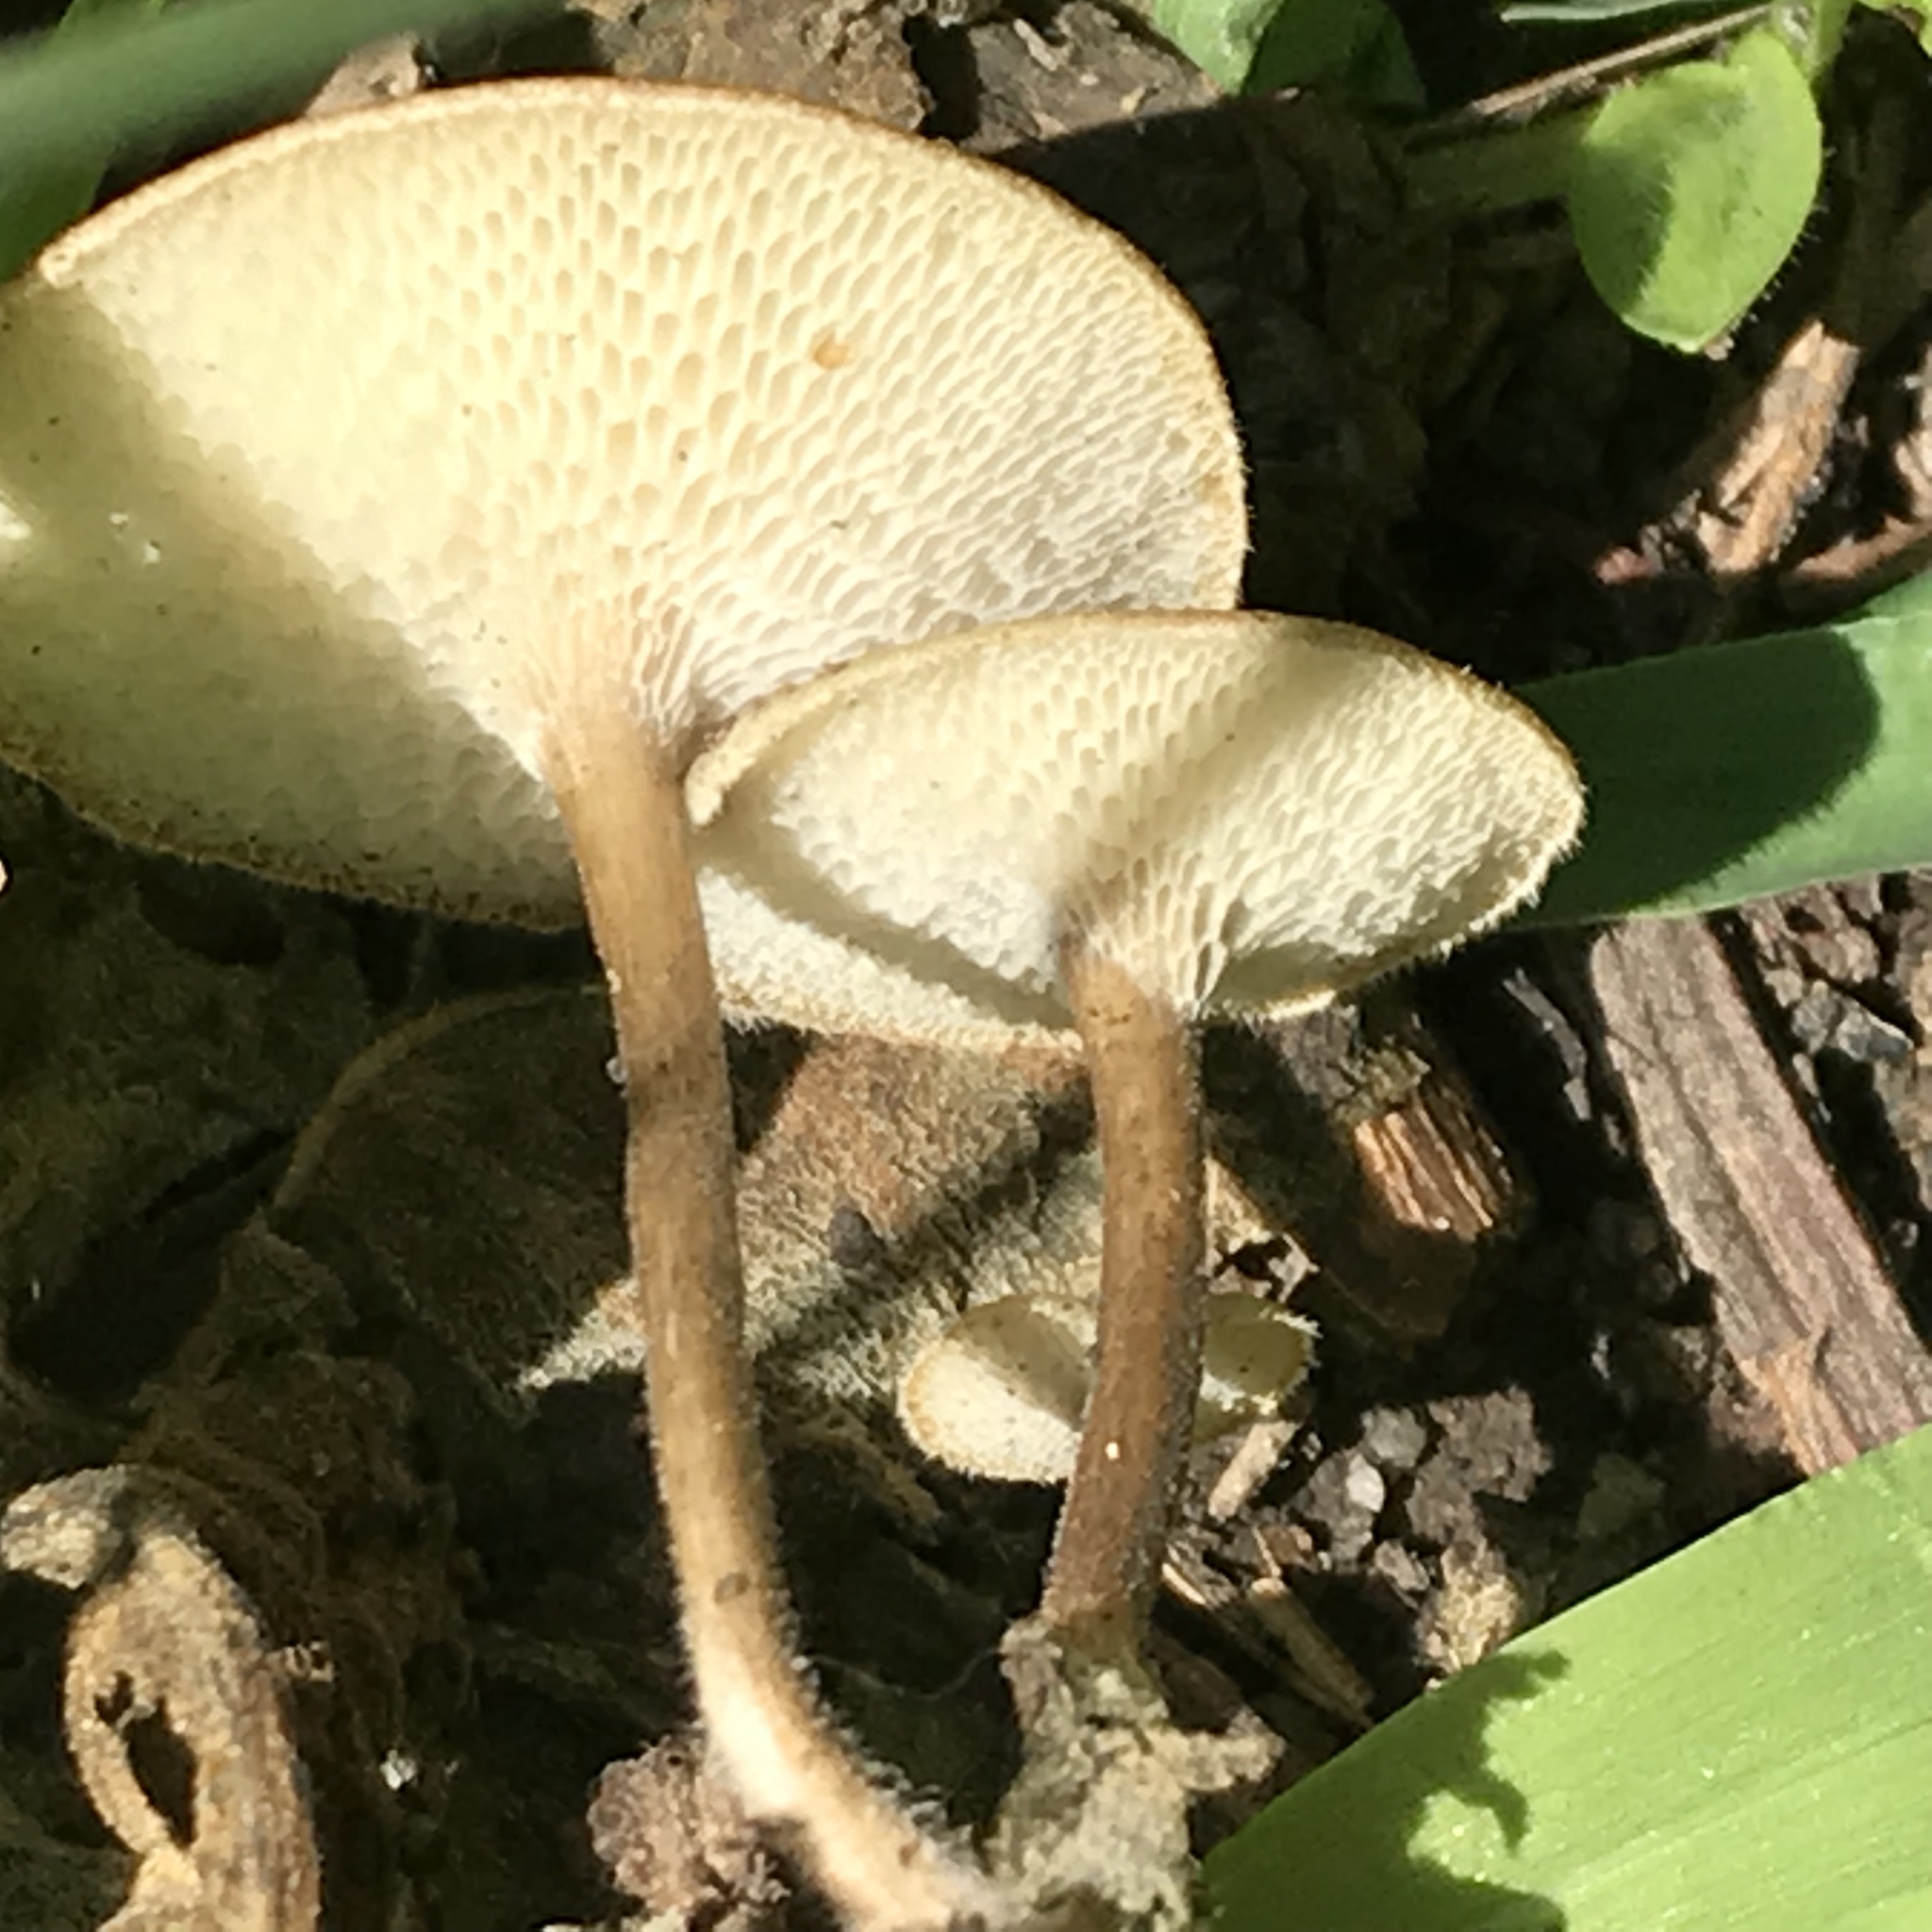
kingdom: Fungi
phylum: Basidiomycota
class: Agaricomycetes
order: Polyporales
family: Polyporaceae
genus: Lentinus
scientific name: Lentinus arcularius
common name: Spring polypore
